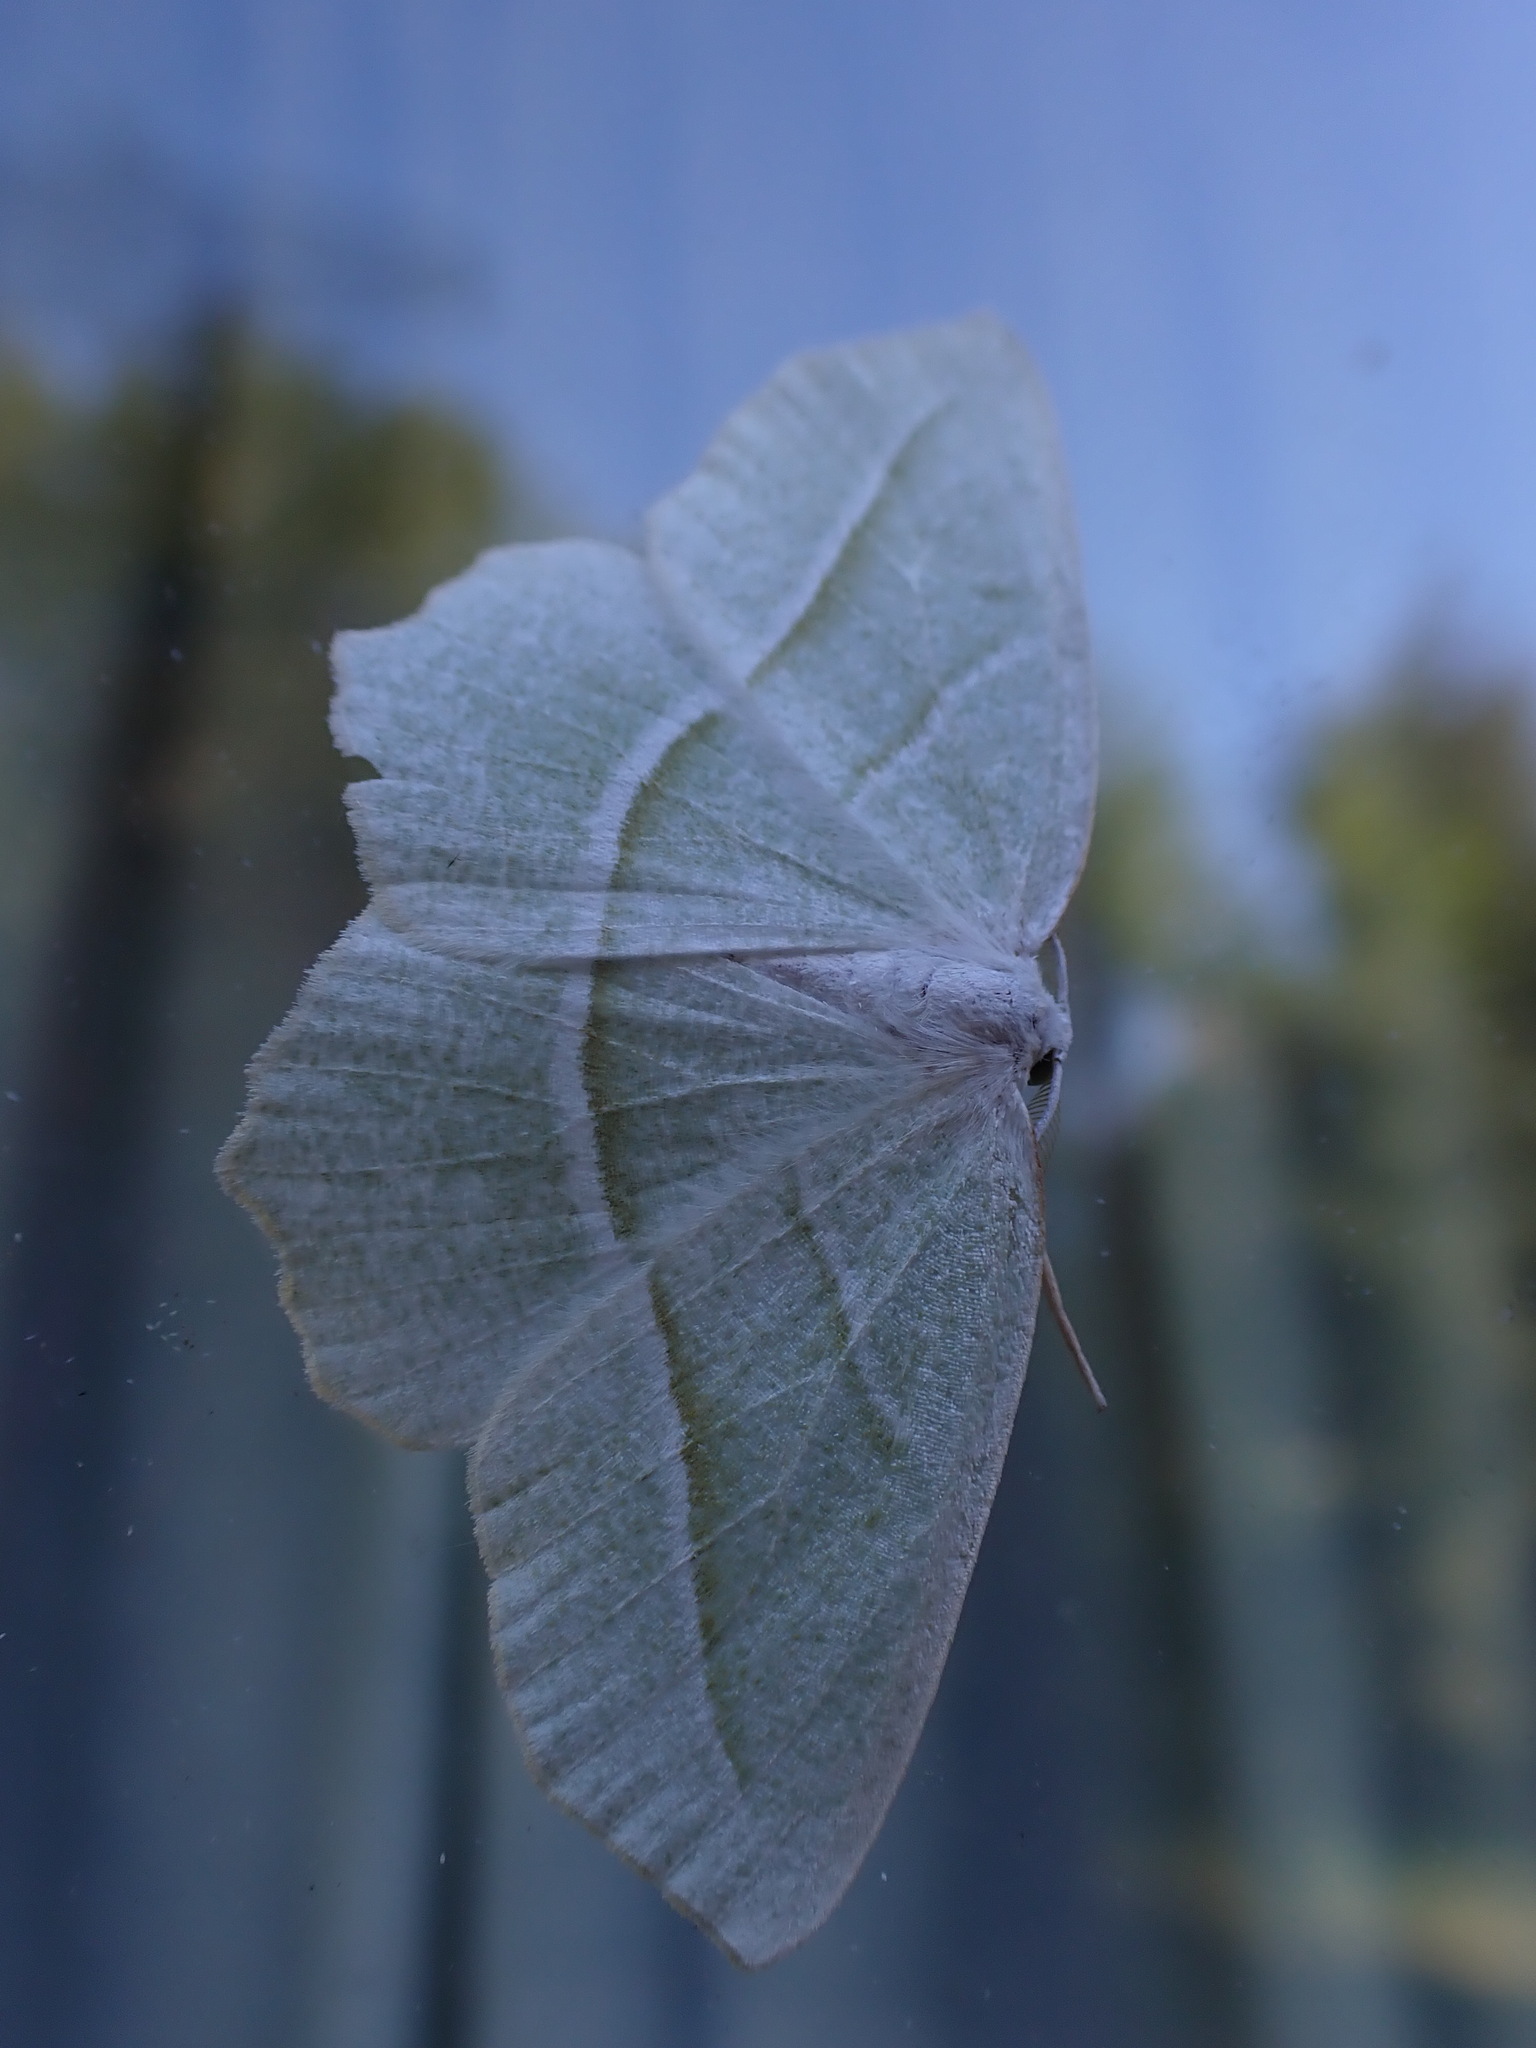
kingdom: Animalia
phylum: Arthropoda
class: Insecta
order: Lepidoptera
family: Geometridae
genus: Campaea
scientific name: Campaea perlata
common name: Fringed looper
